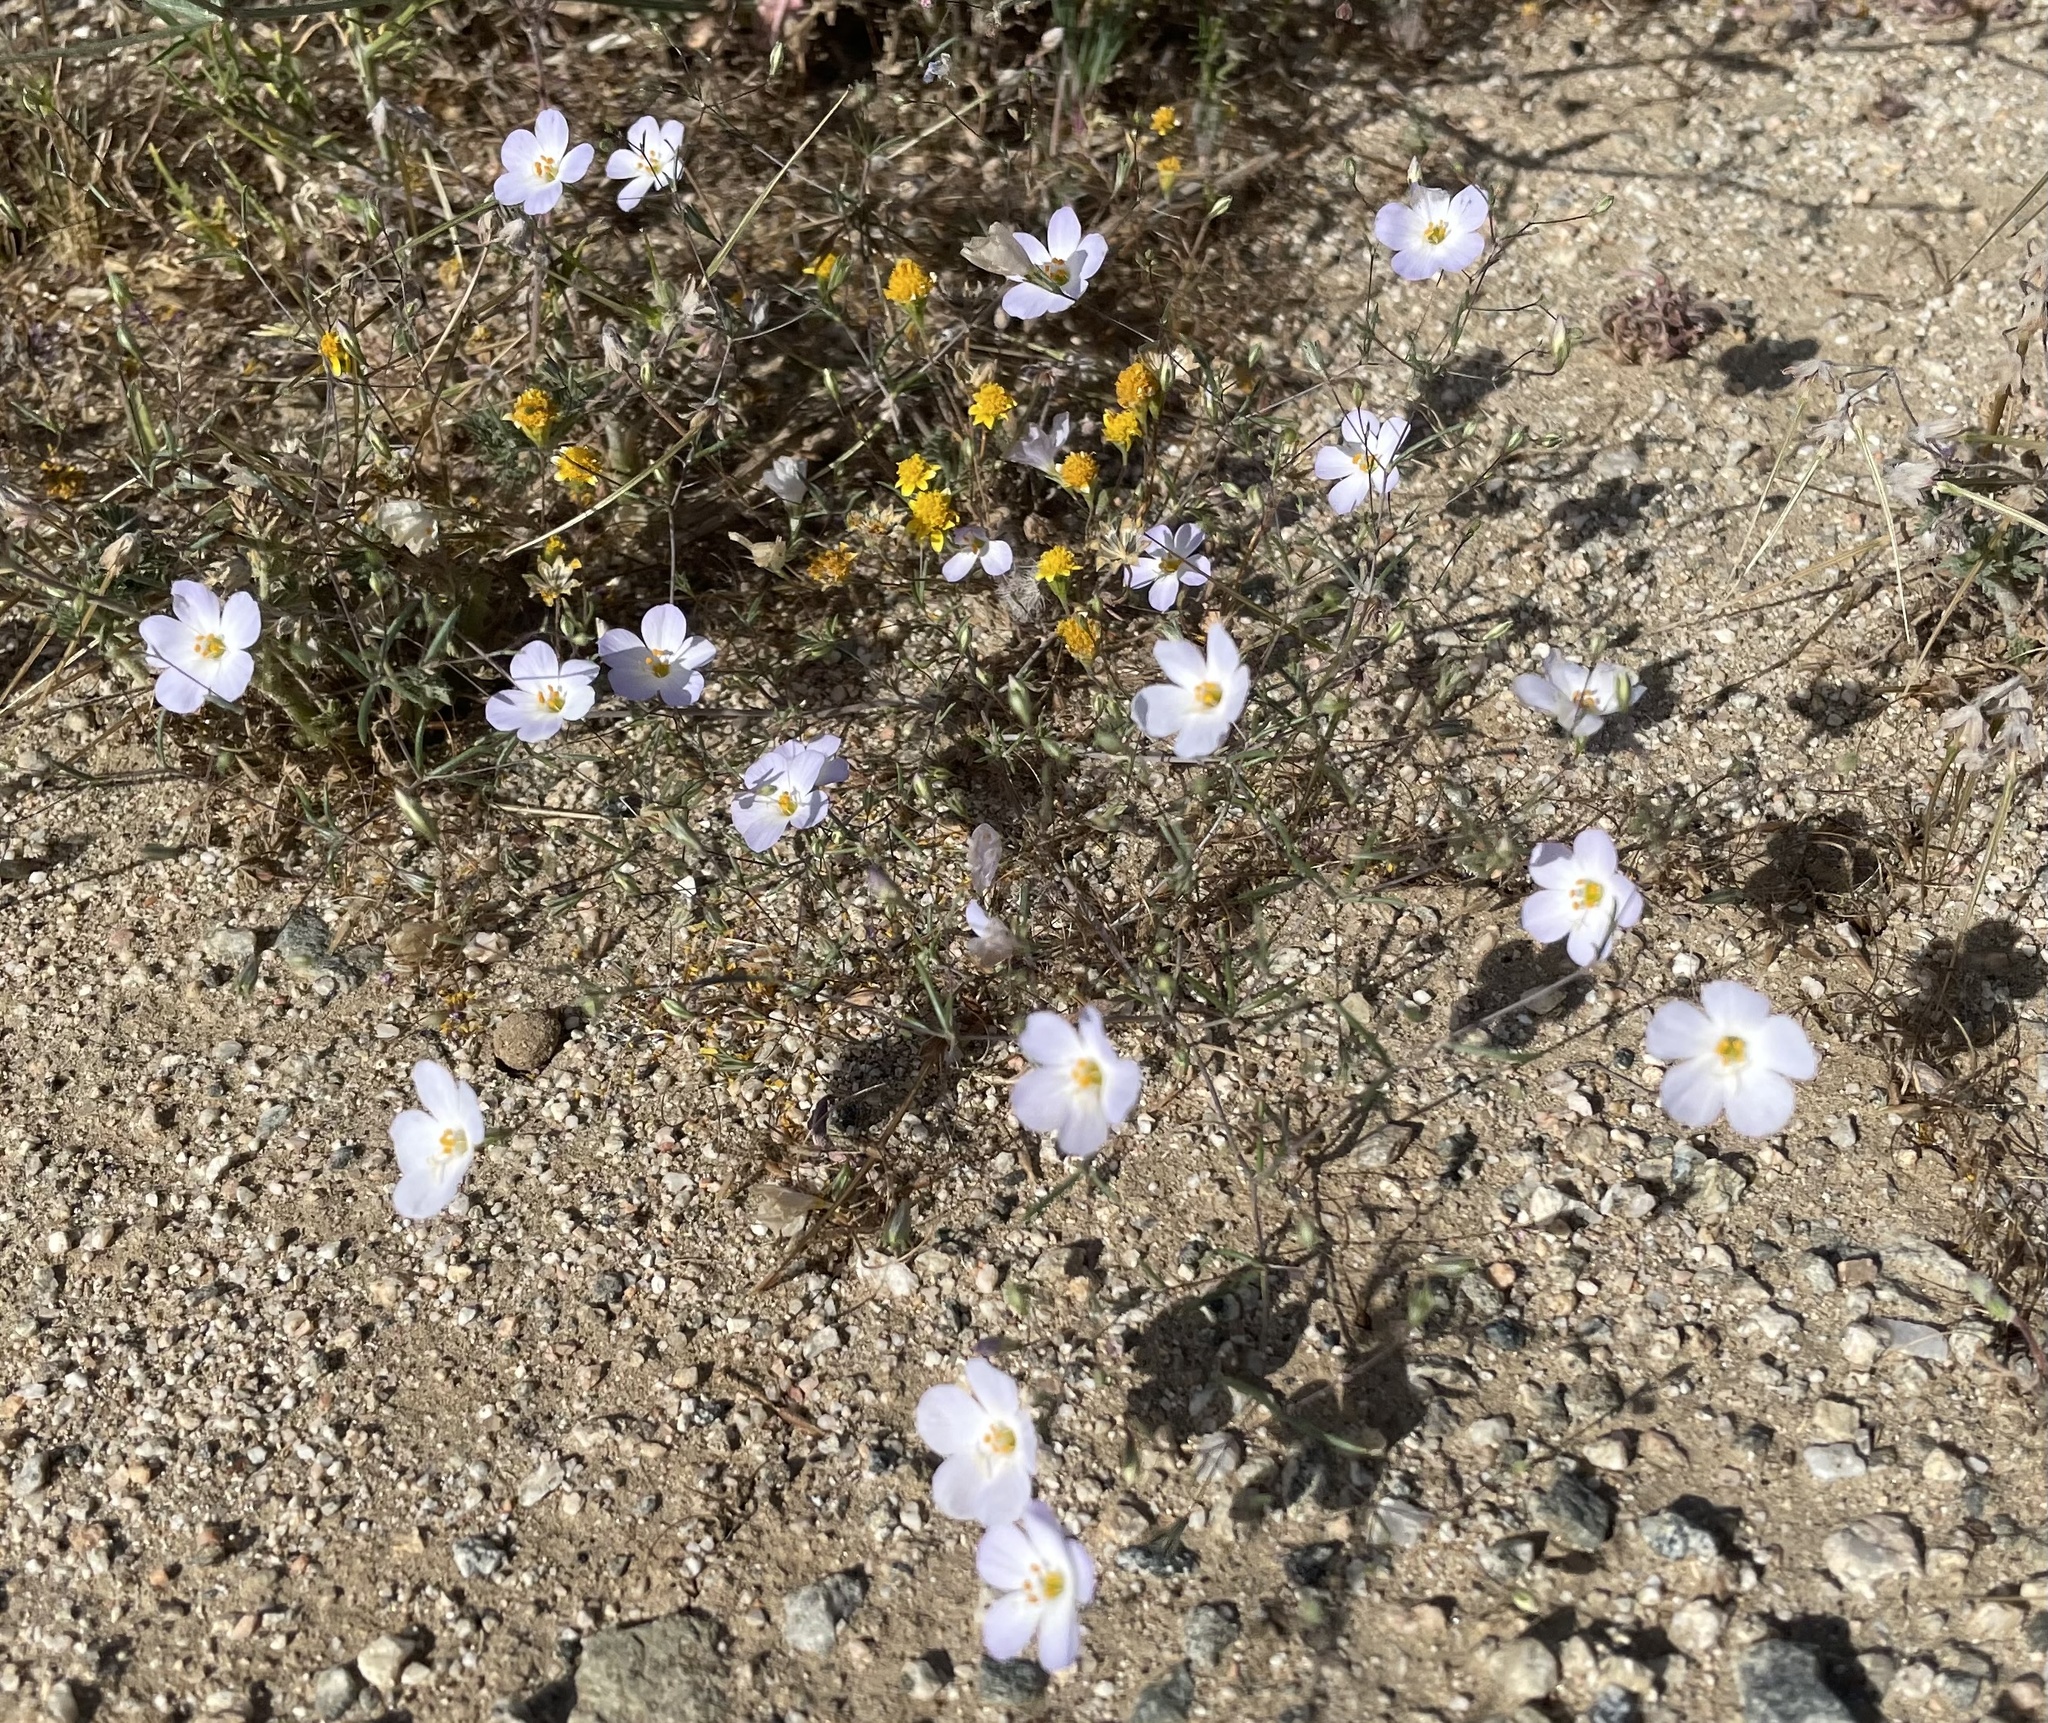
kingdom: Plantae
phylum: Tracheophyta
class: Magnoliopsida
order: Ericales
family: Polemoniaceae
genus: Leptosiphon
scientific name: Leptosiphon liniflorus
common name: Narrowflower flaxflower
